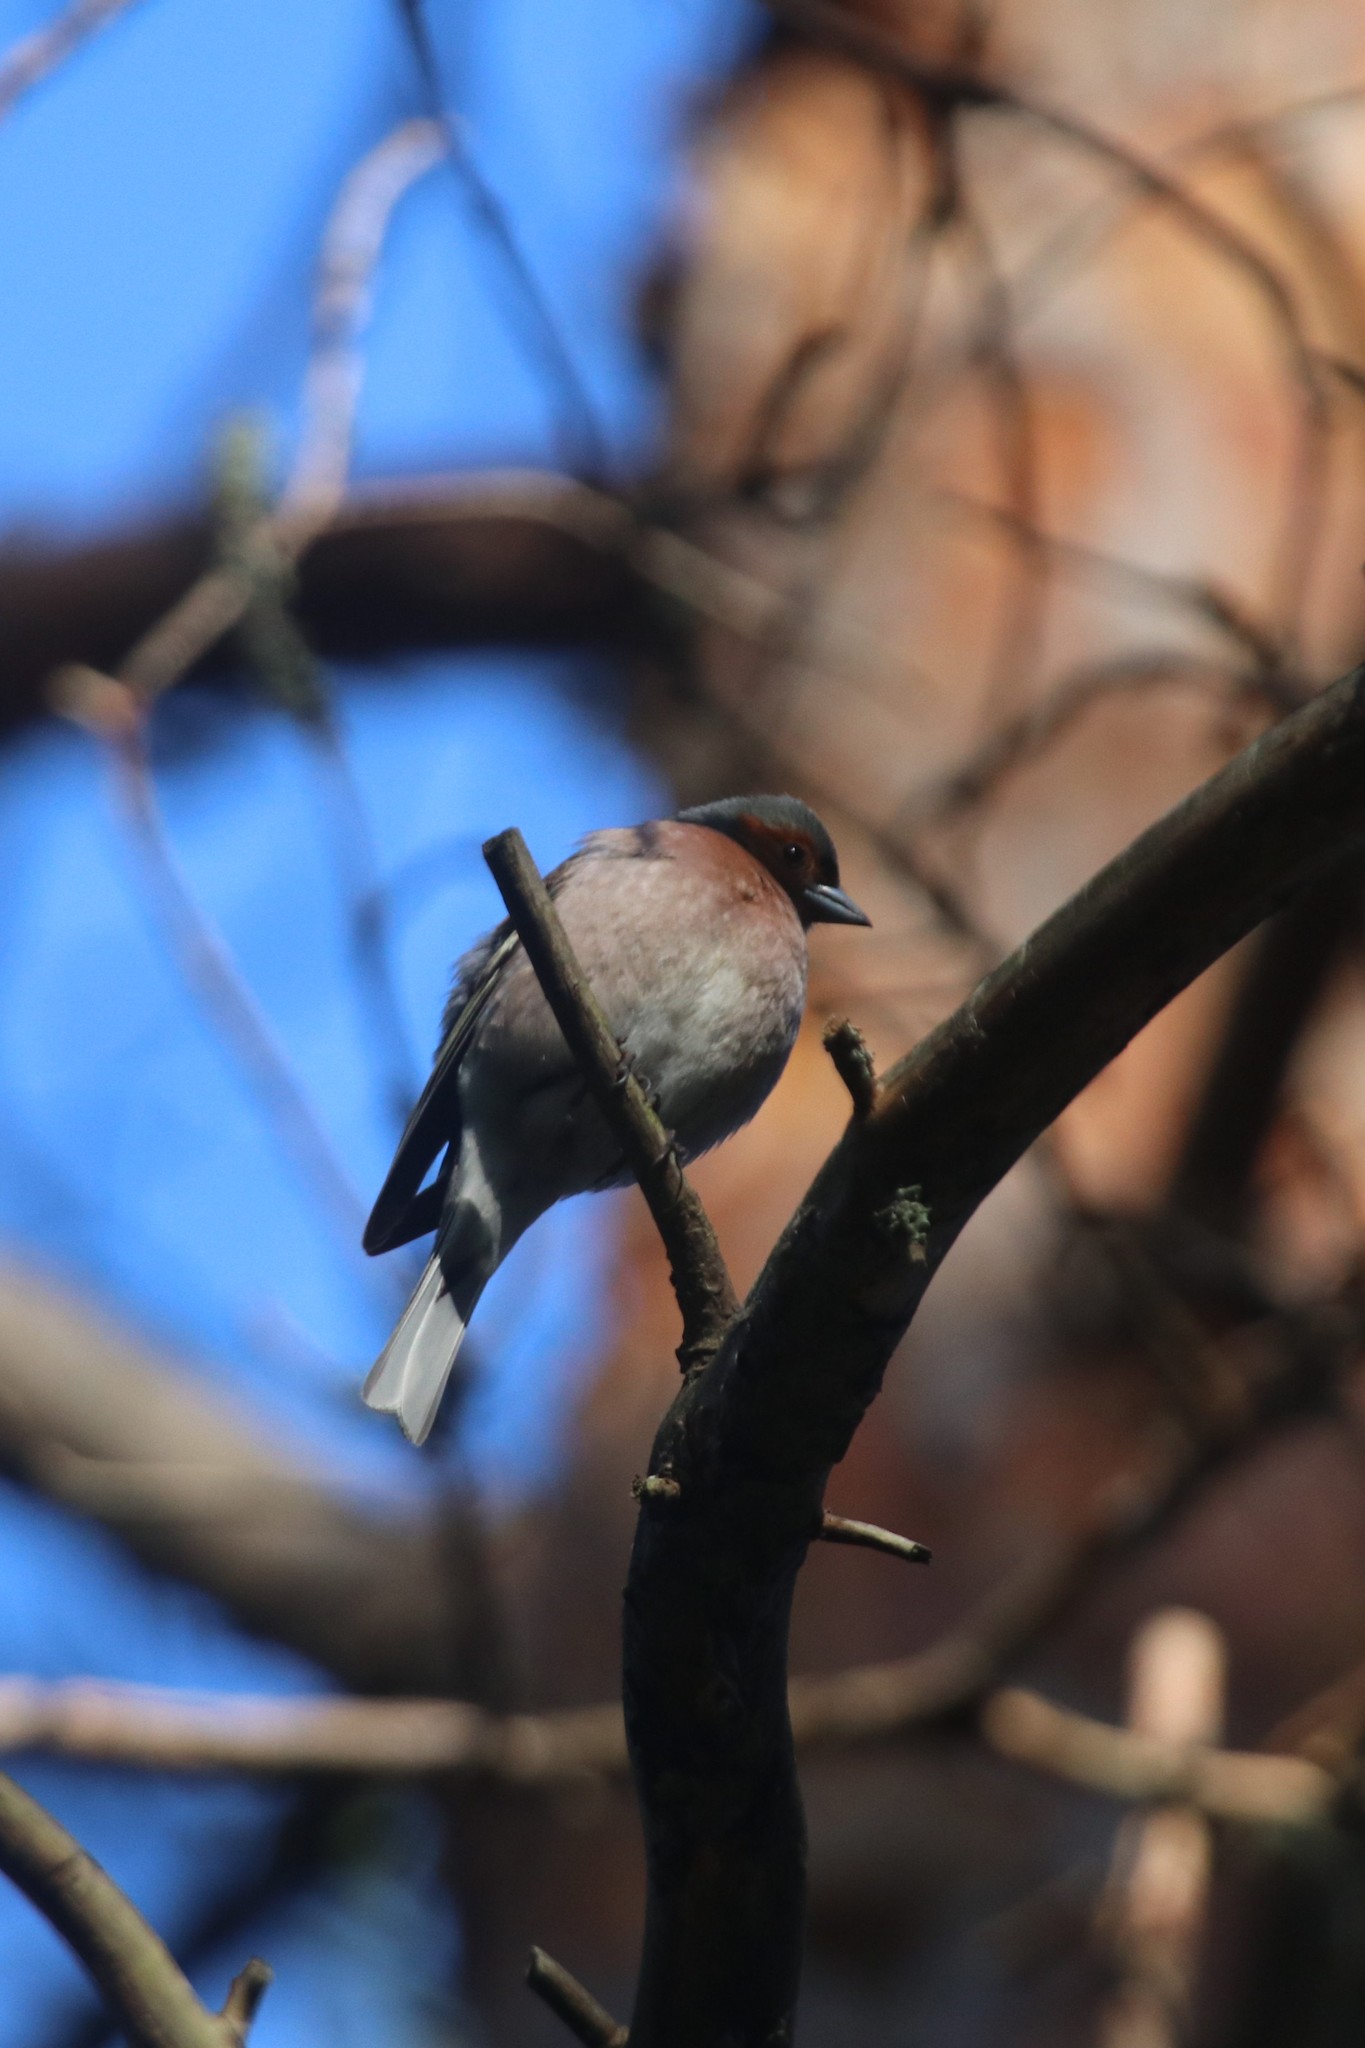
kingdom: Animalia
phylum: Chordata
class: Aves
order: Passeriformes
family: Fringillidae
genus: Fringilla
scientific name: Fringilla coelebs
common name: Common chaffinch
